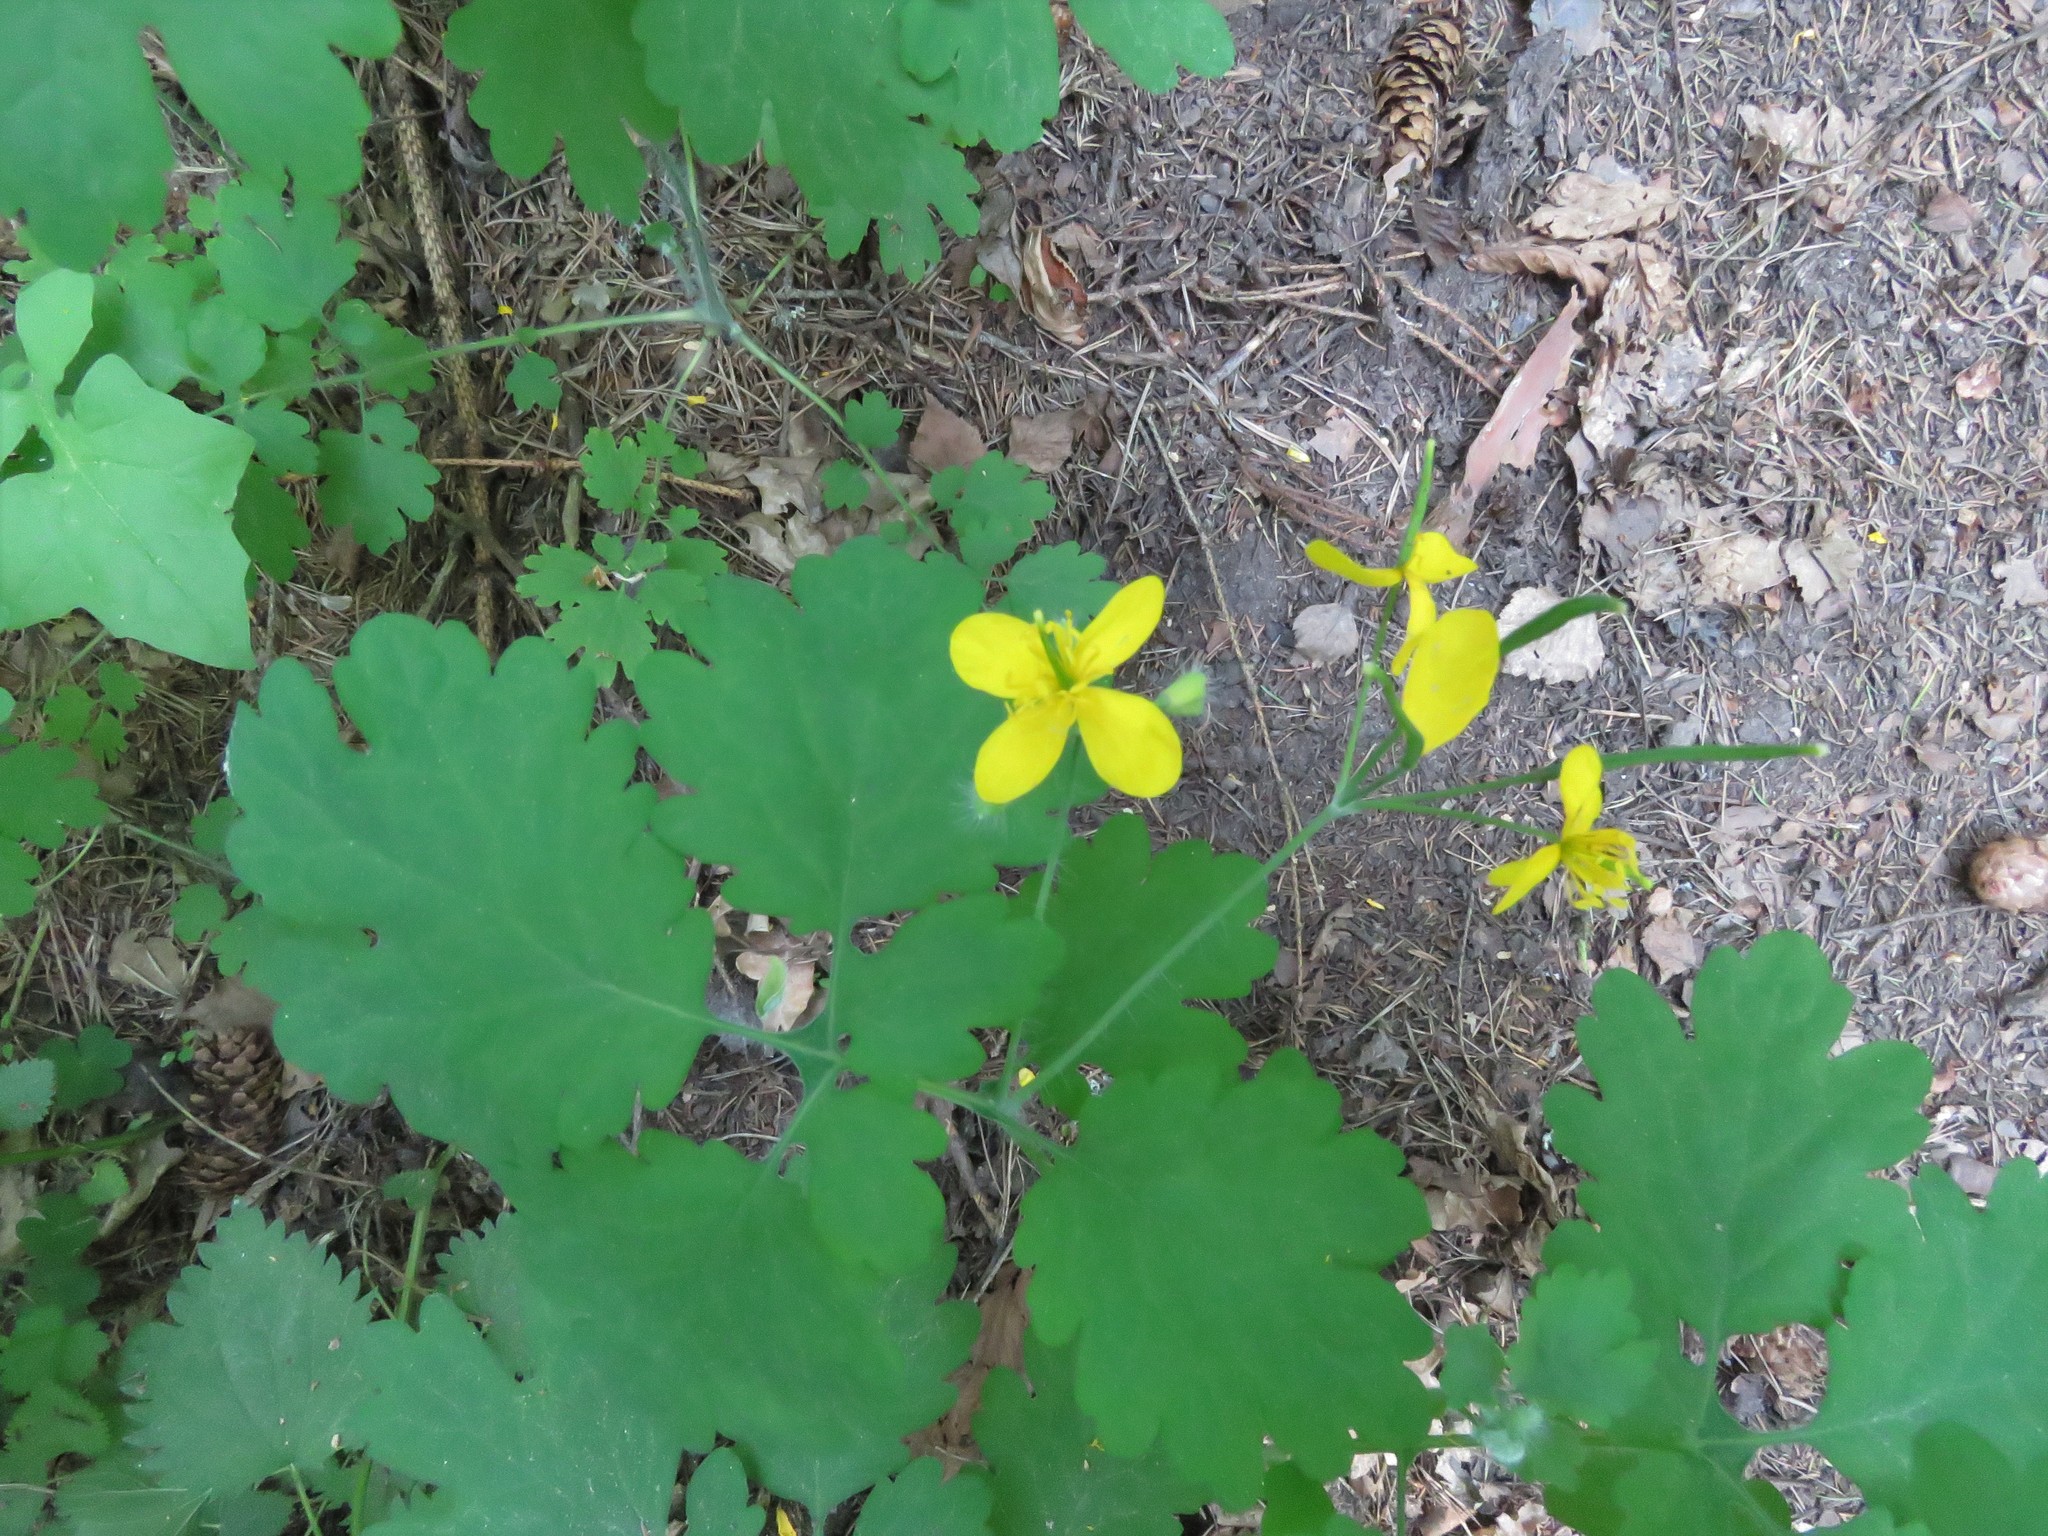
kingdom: Plantae
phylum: Tracheophyta
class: Magnoliopsida
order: Ranunculales
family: Papaveraceae
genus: Chelidonium
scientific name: Chelidonium majus
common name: Greater celandine
